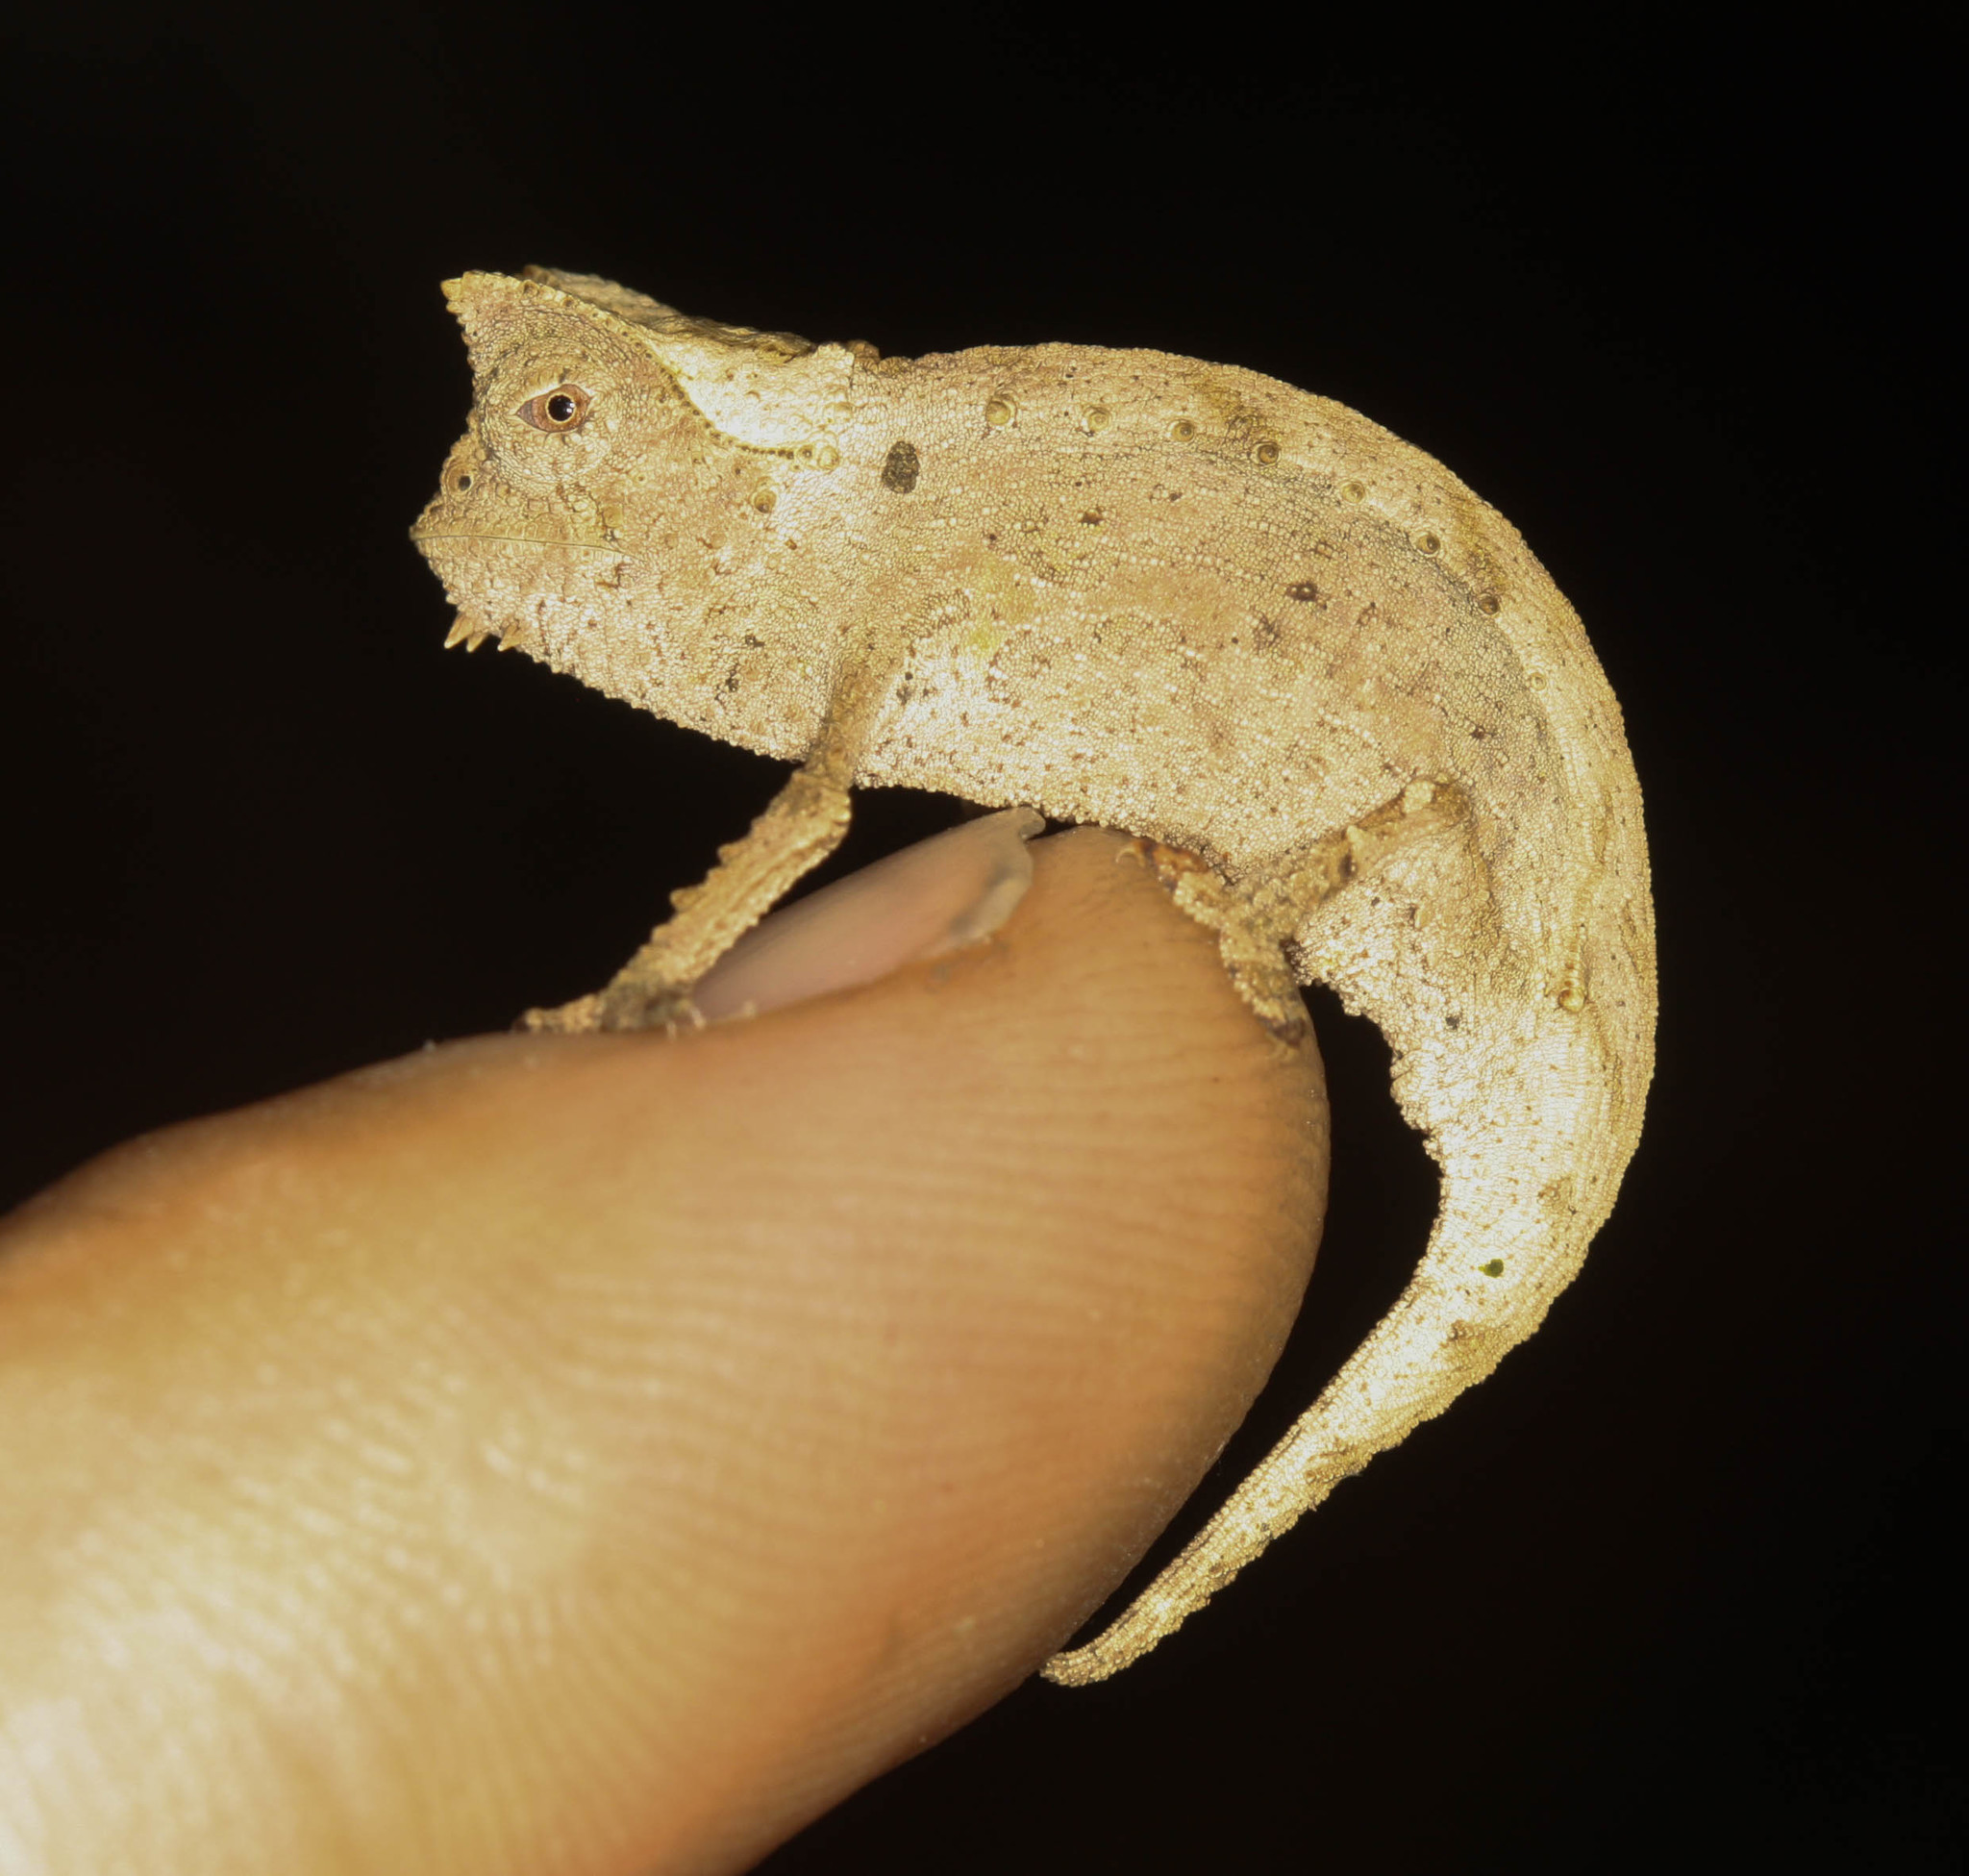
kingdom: Animalia
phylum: Chordata
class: Squamata
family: Chamaeleonidae
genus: Brookesia
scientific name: Brookesia superciliaris
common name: Brown leaf chameleon
